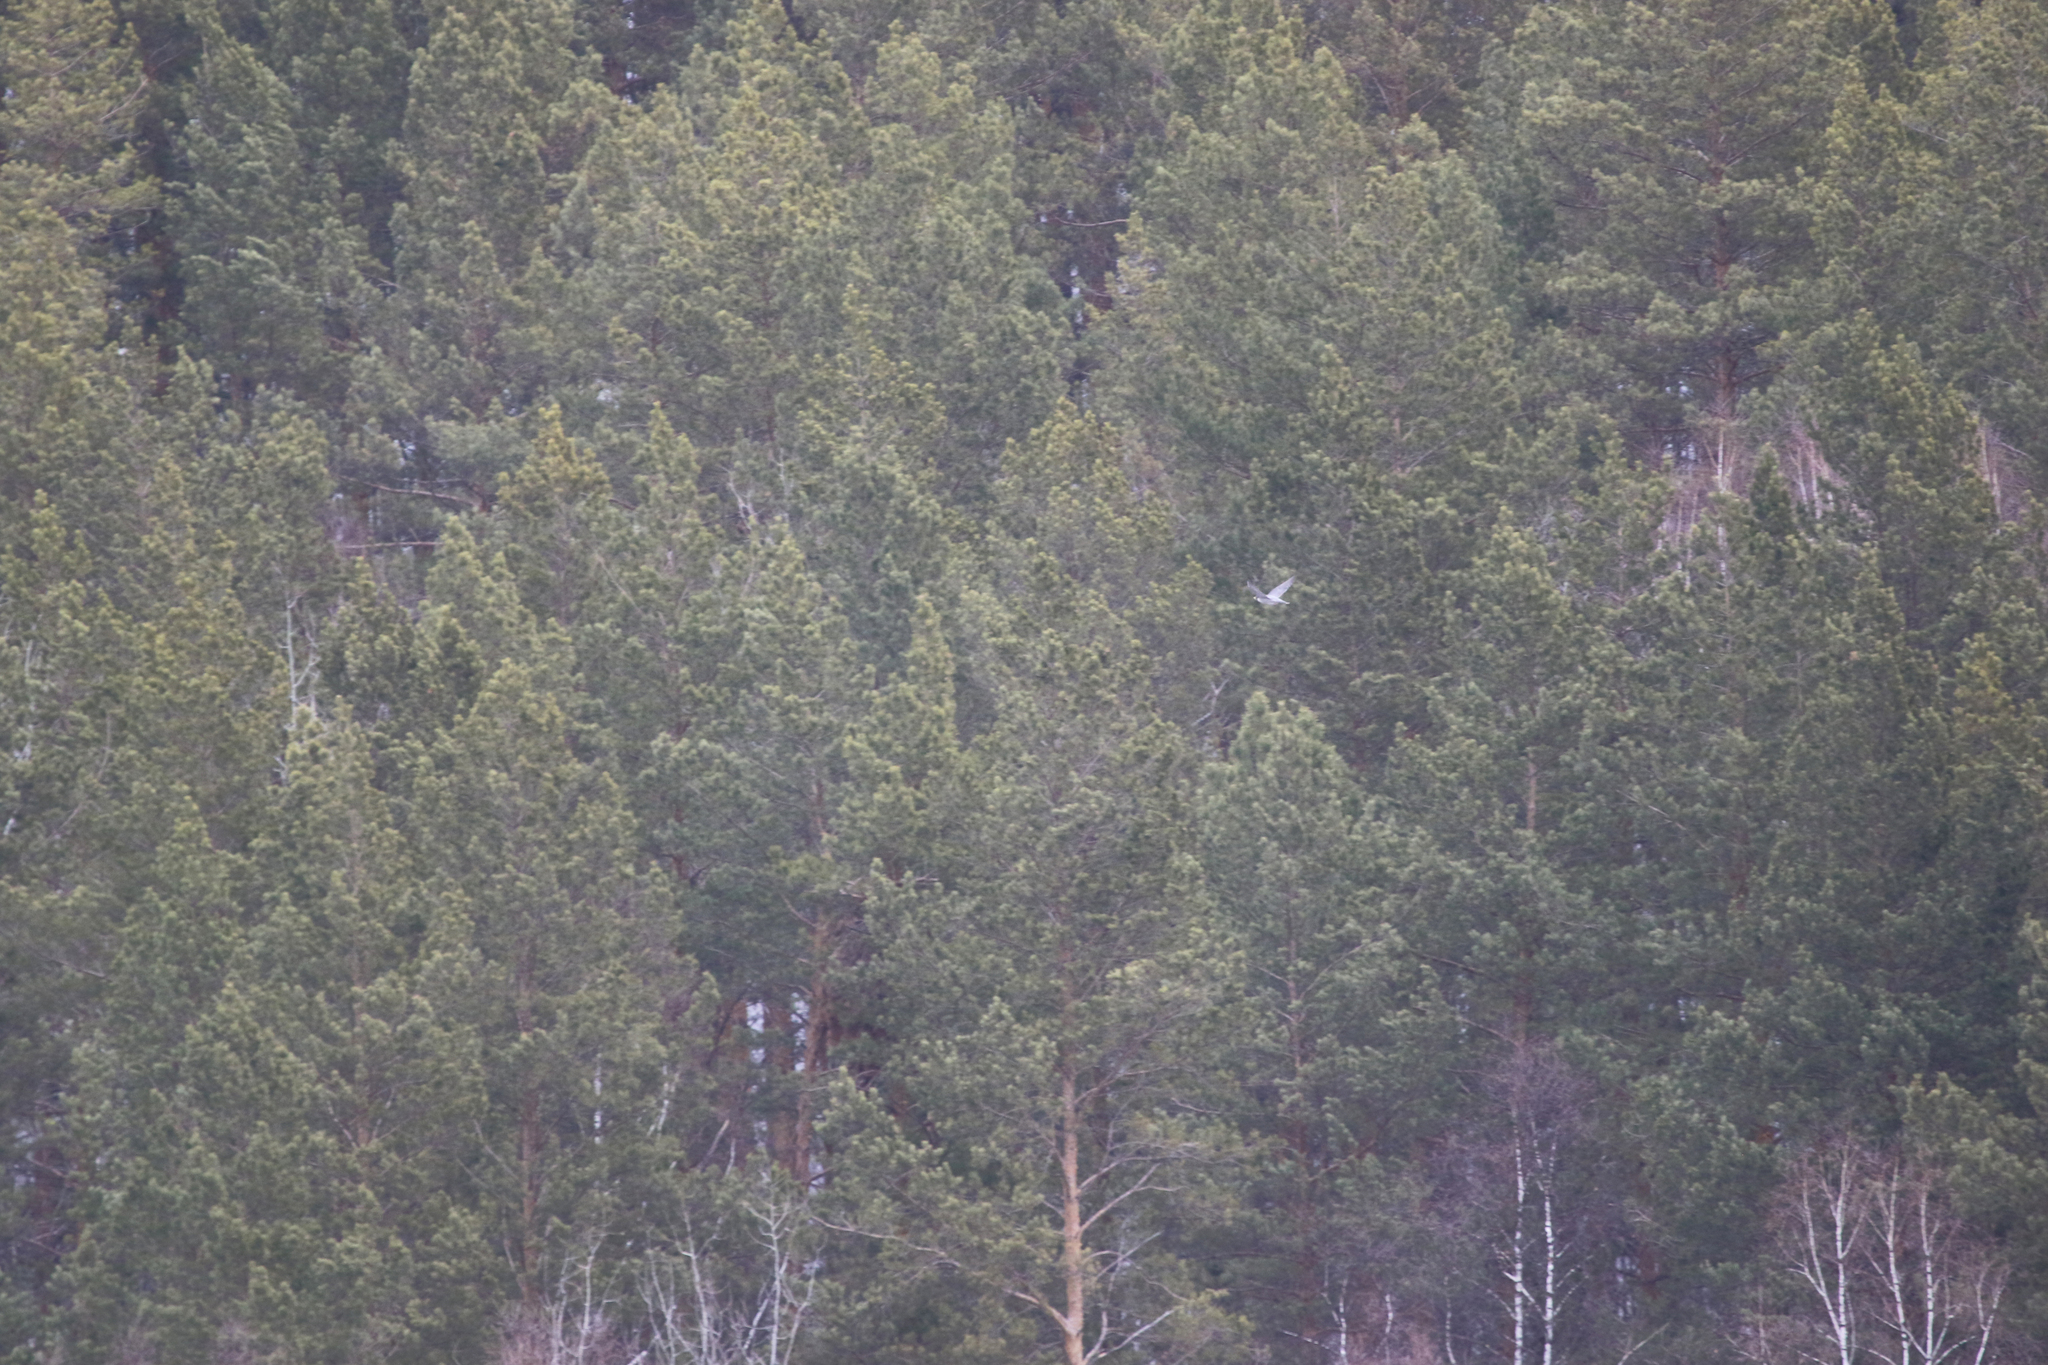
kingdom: Animalia
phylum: Chordata
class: Aves
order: Falconiformes
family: Falconidae
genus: Falco
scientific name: Falco peregrinus
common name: Peregrine falcon
